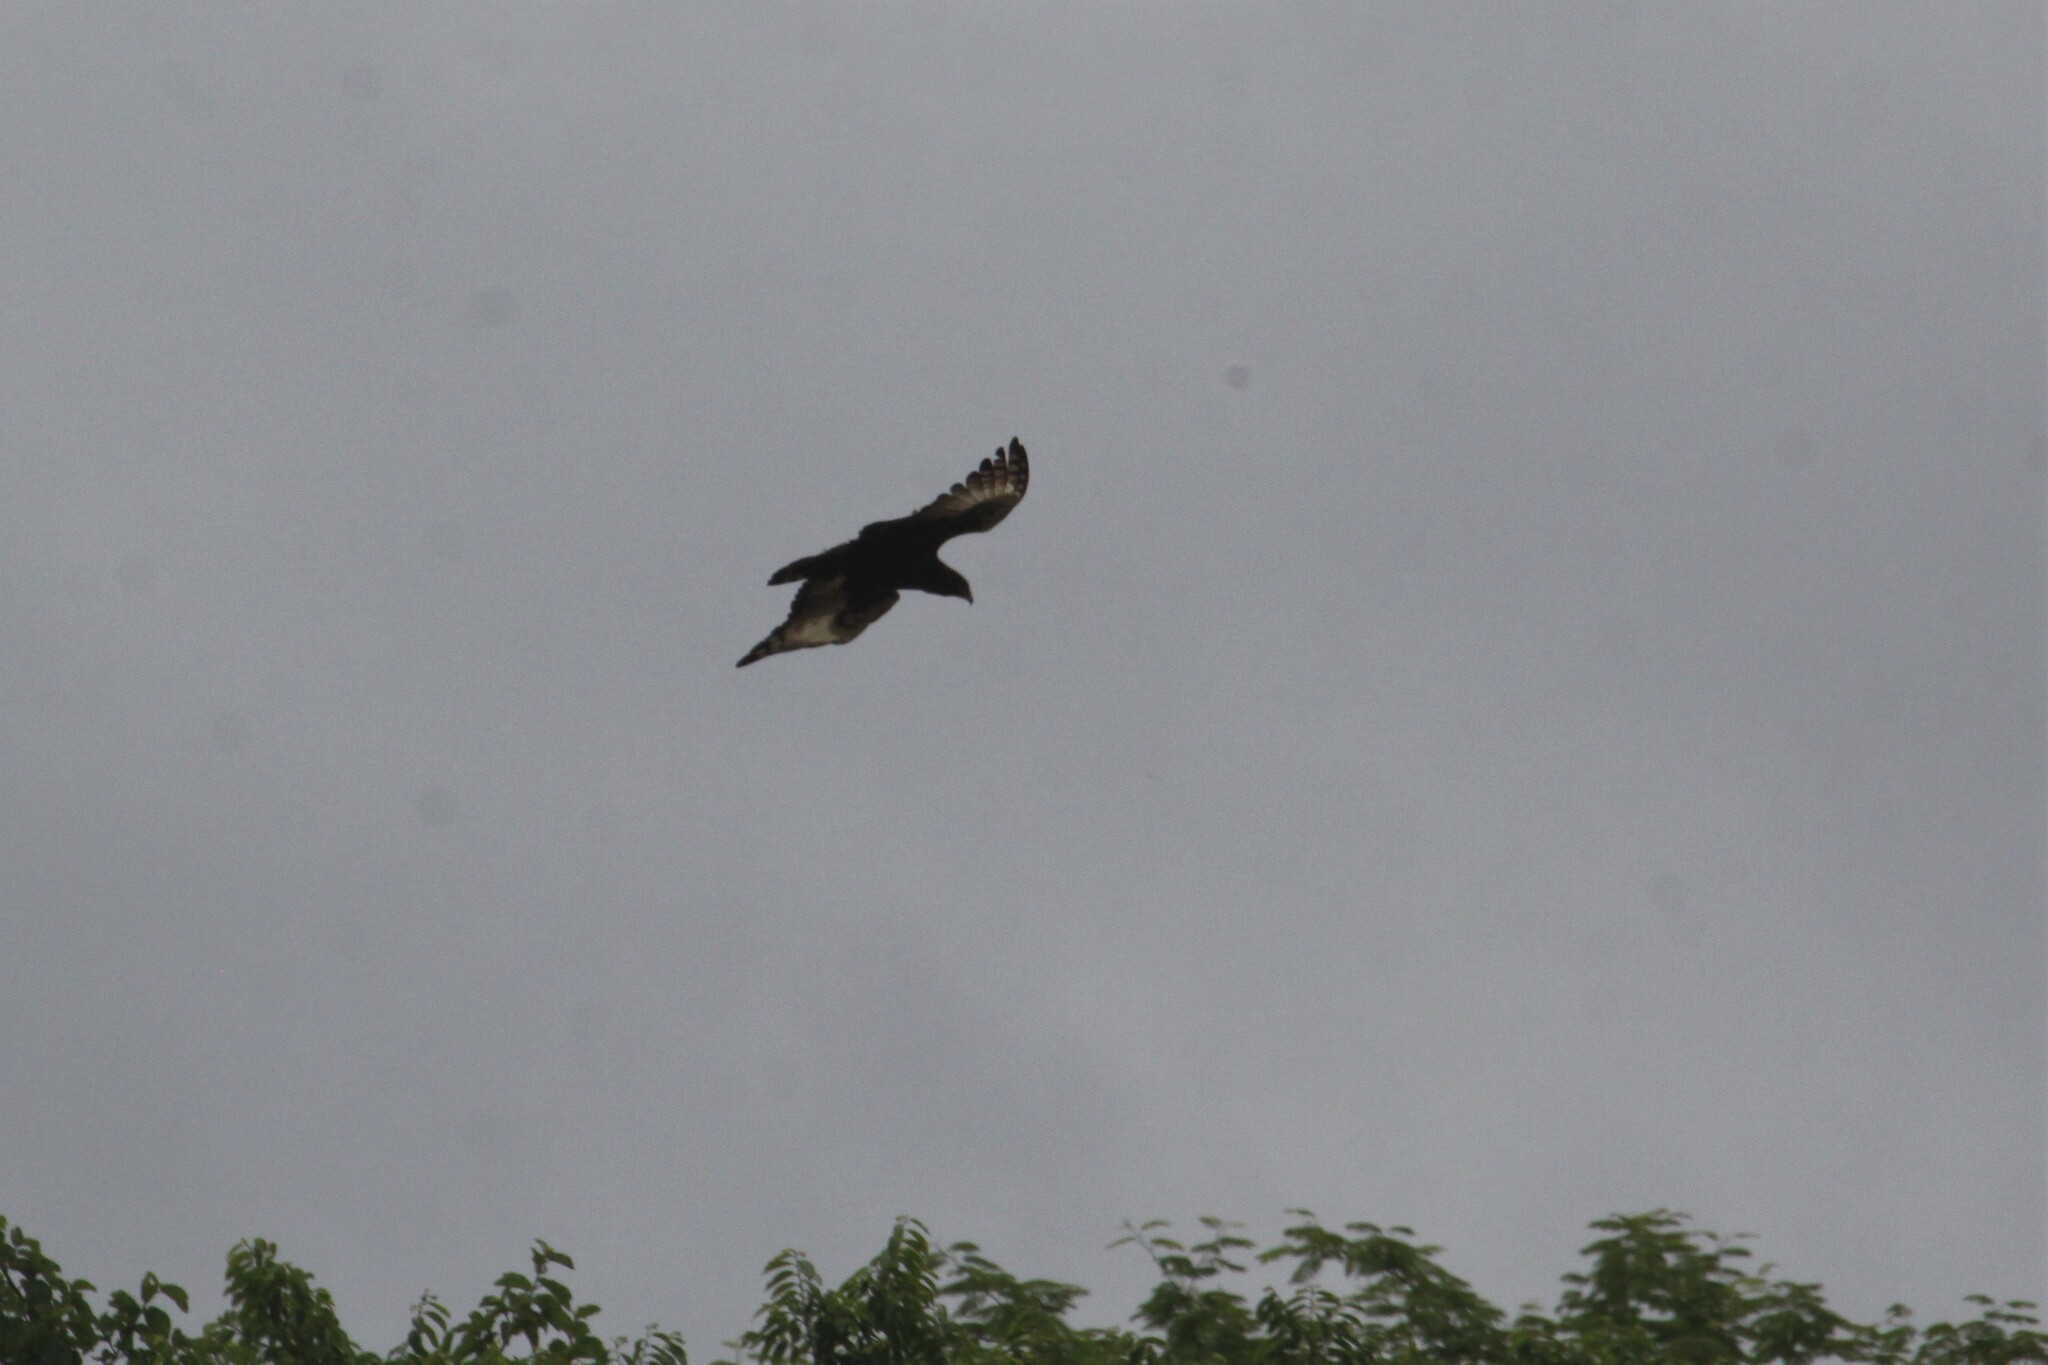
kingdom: Animalia
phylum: Chordata
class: Aves
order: Accipitriformes
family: Accipitridae
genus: Lophaetus
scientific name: Lophaetus occipitalis
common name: Long-crested eagle
